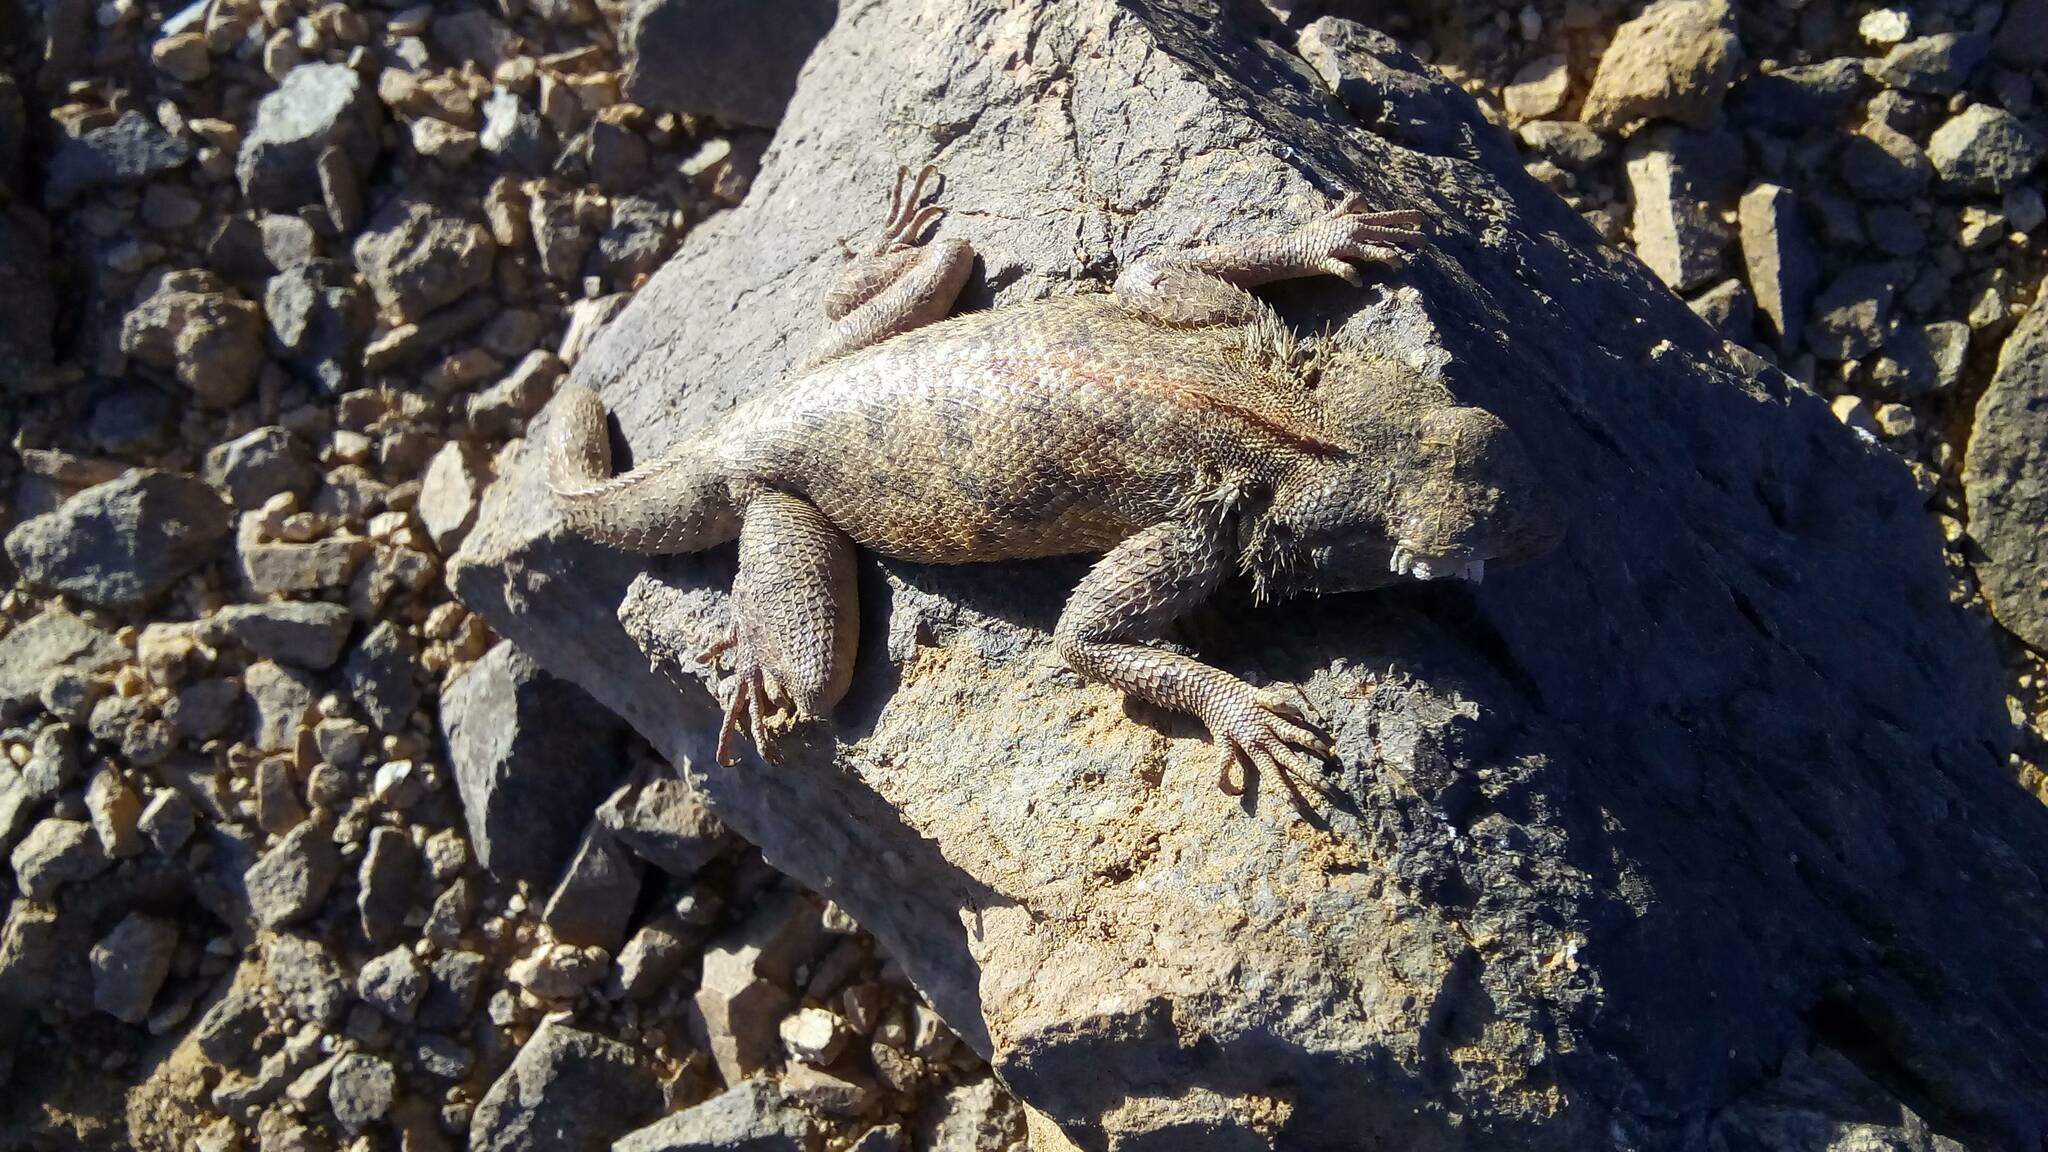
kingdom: Animalia
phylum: Chordata
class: Squamata
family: Agamidae
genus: Agama
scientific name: Agama impalearis
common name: Bibron's agama
